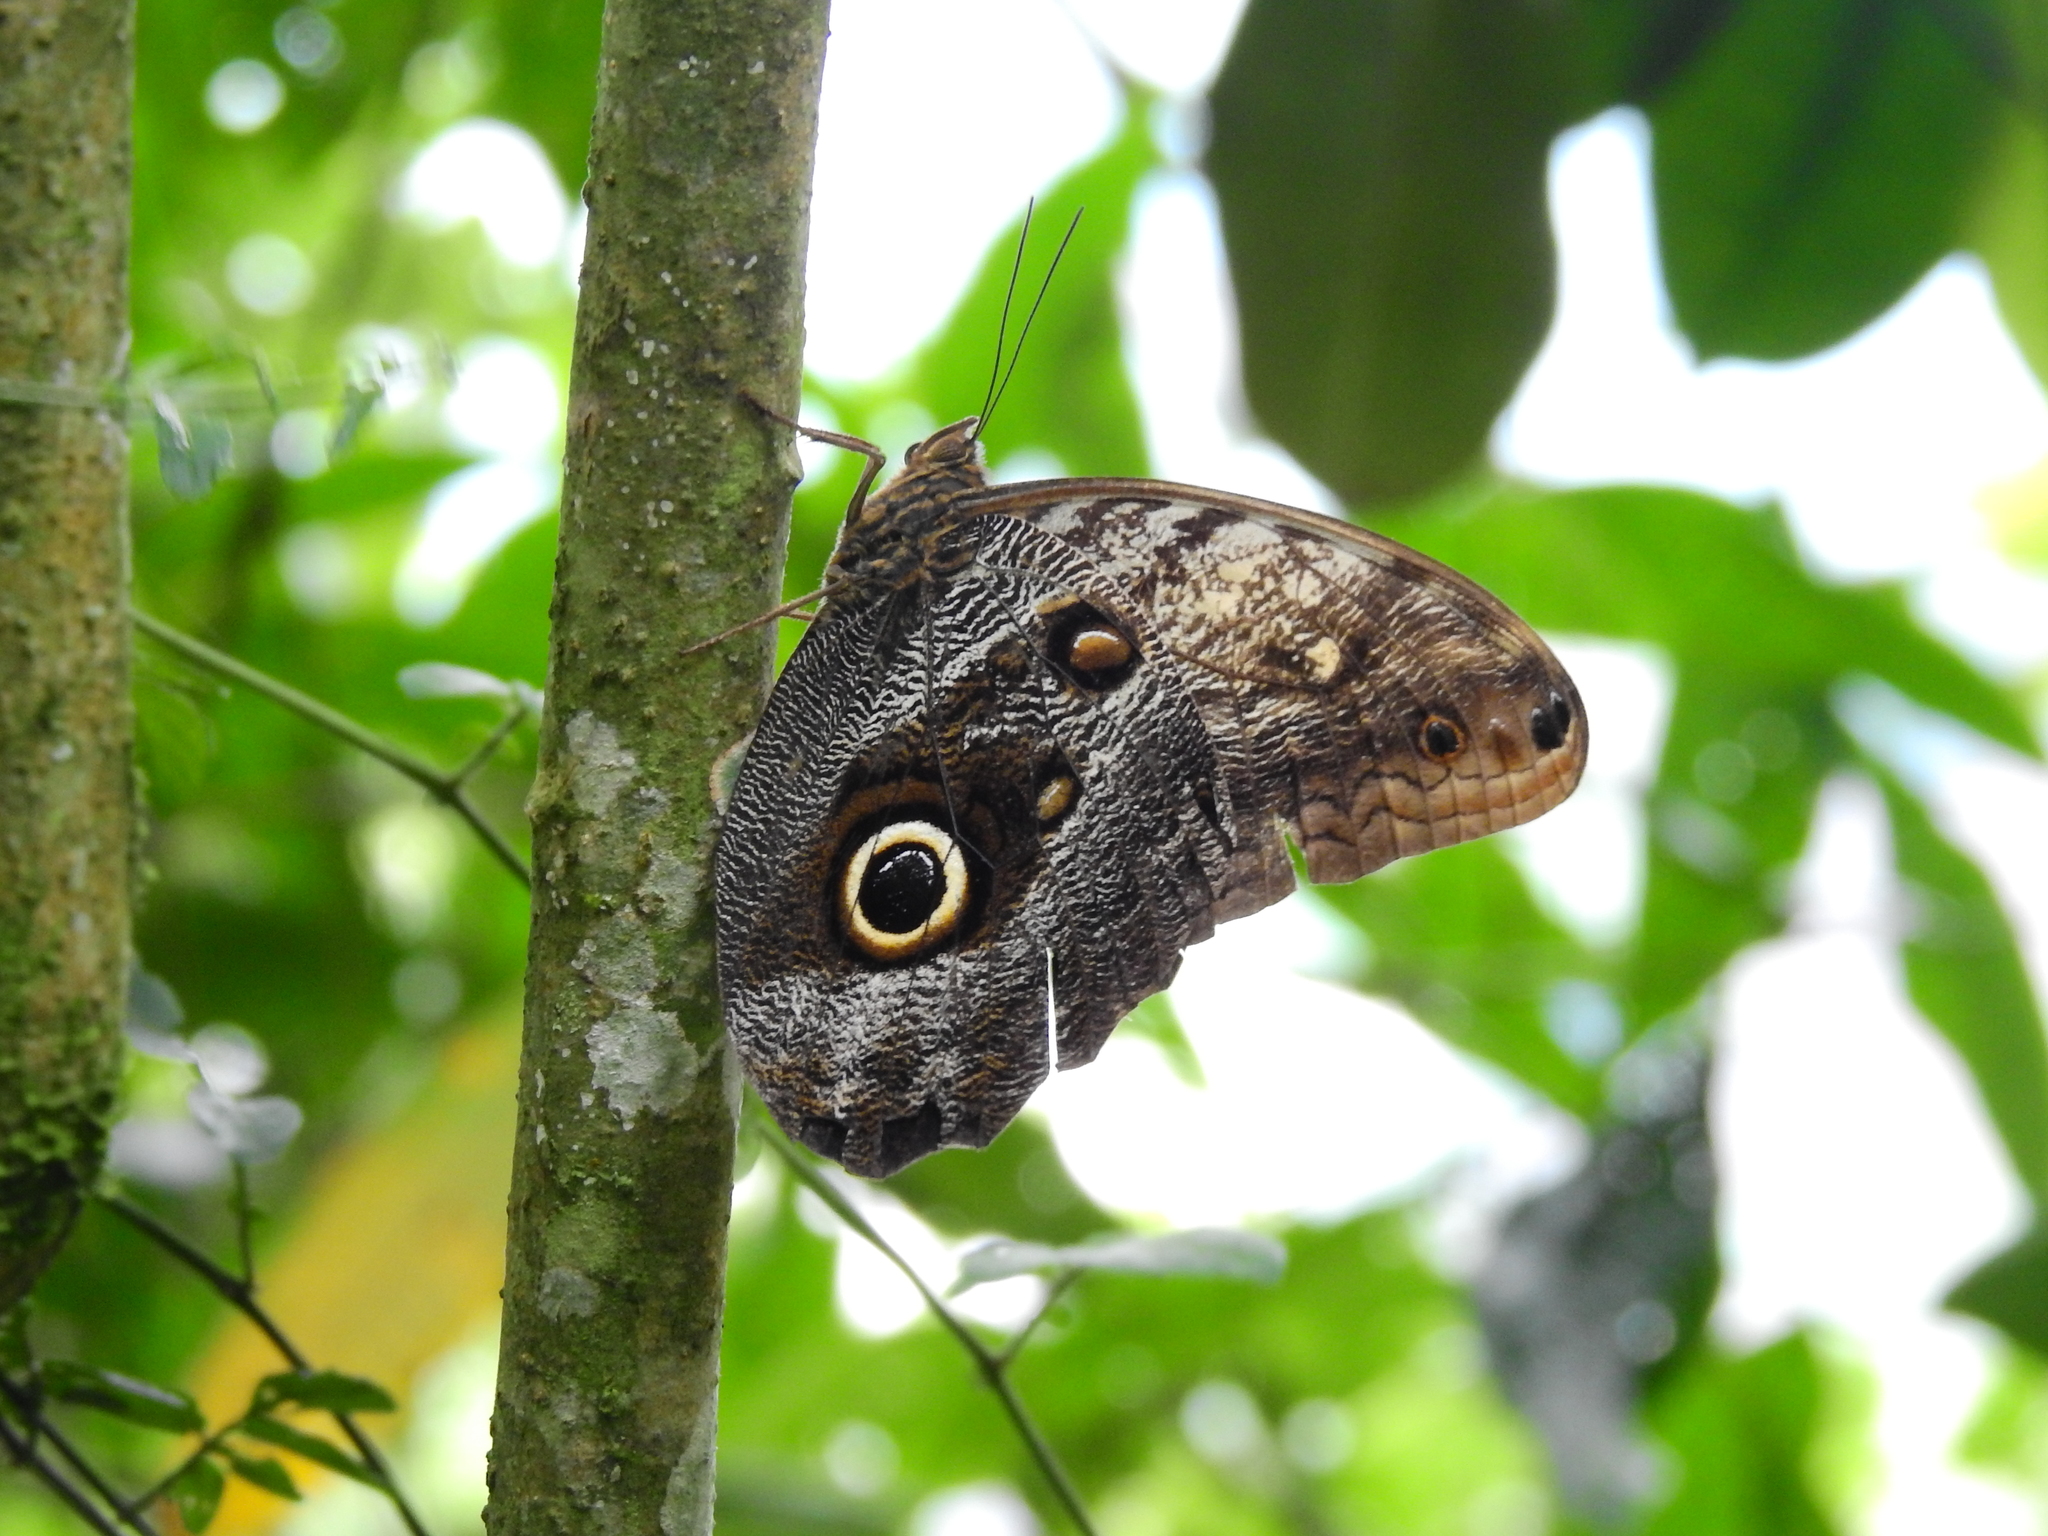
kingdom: Animalia
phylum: Arthropoda
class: Insecta
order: Lepidoptera
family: Nymphalidae
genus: Caligo
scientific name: Caligo telamonius
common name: Pale owl-butterfly
